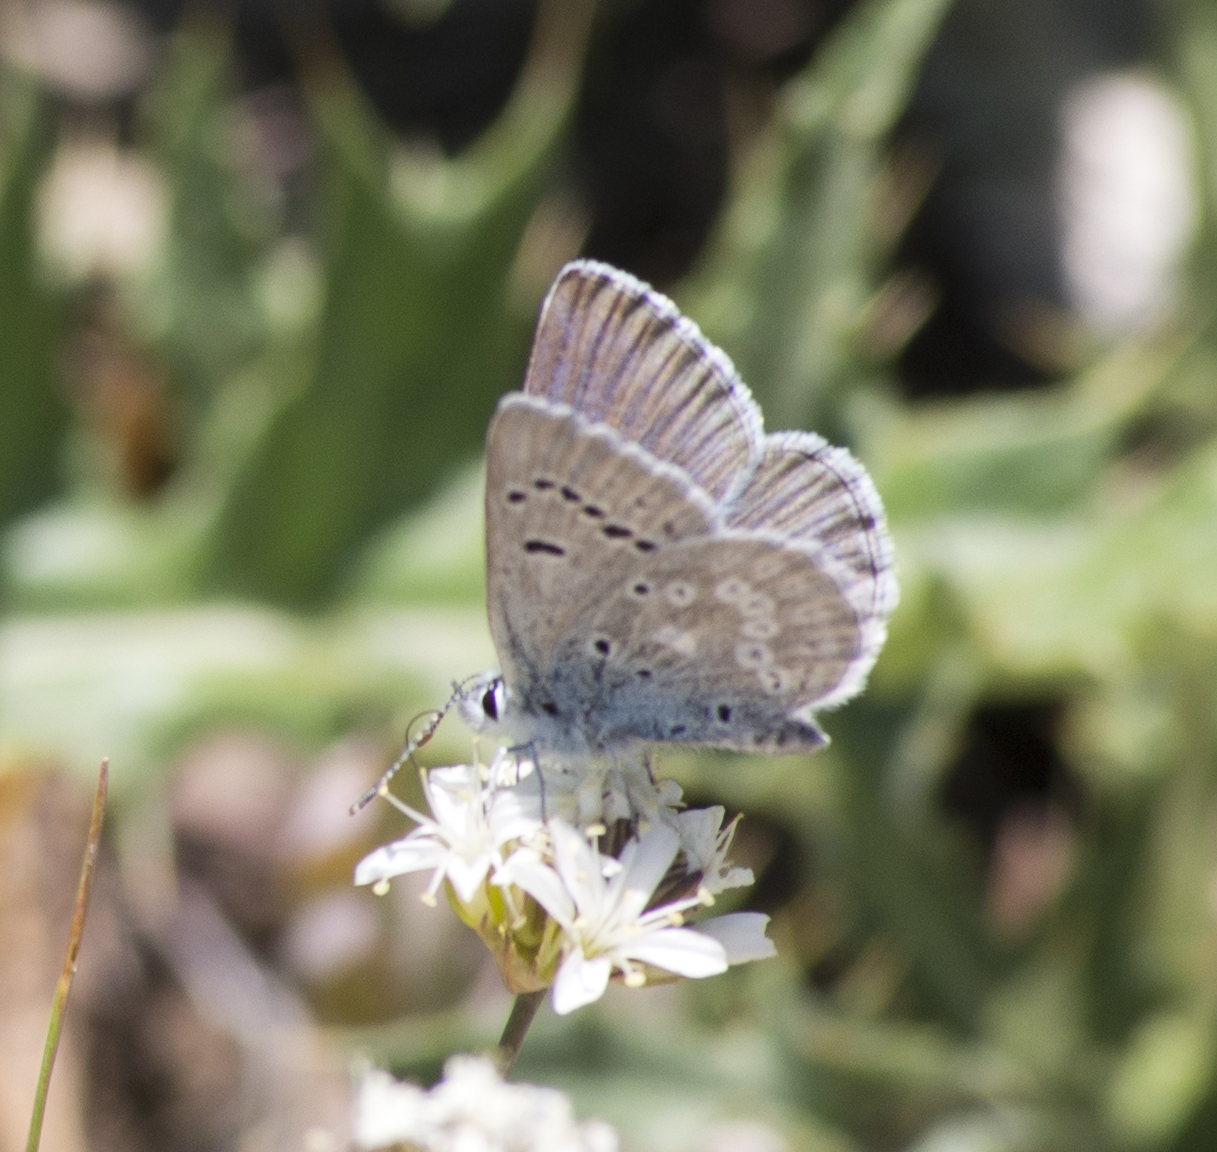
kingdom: Animalia
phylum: Arthropoda
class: Insecta
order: Lepidoptera
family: Lycaenidae
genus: Icaricia
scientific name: Icaricia icarioides
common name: Boisduval's blue
